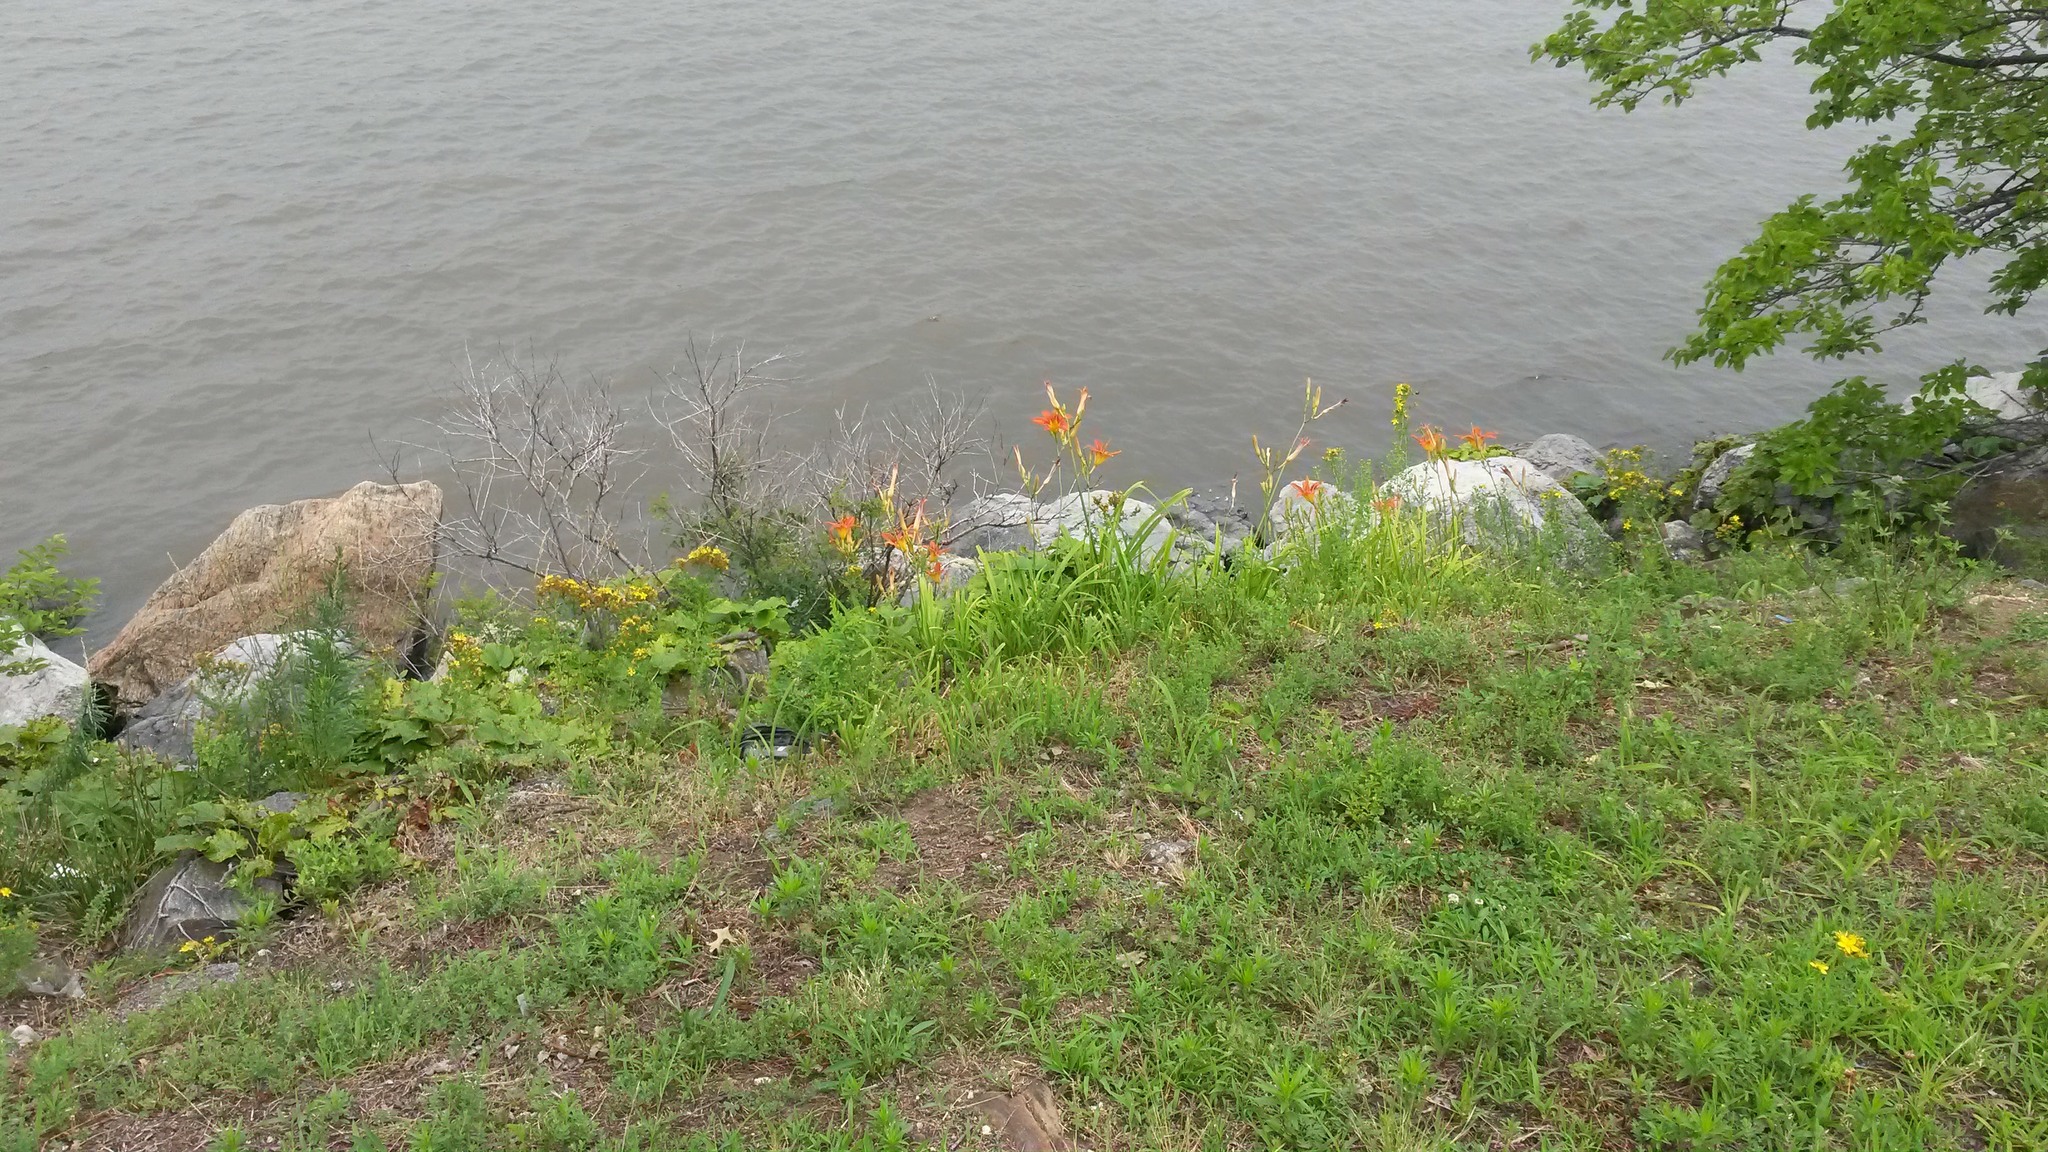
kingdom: Plantae
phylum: Tracheophyta
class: Liliopsida
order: Asparagales
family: Asphodelaceae
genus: Hemerocallis
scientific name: Hemerocallis fulva
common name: Orange day-lily
